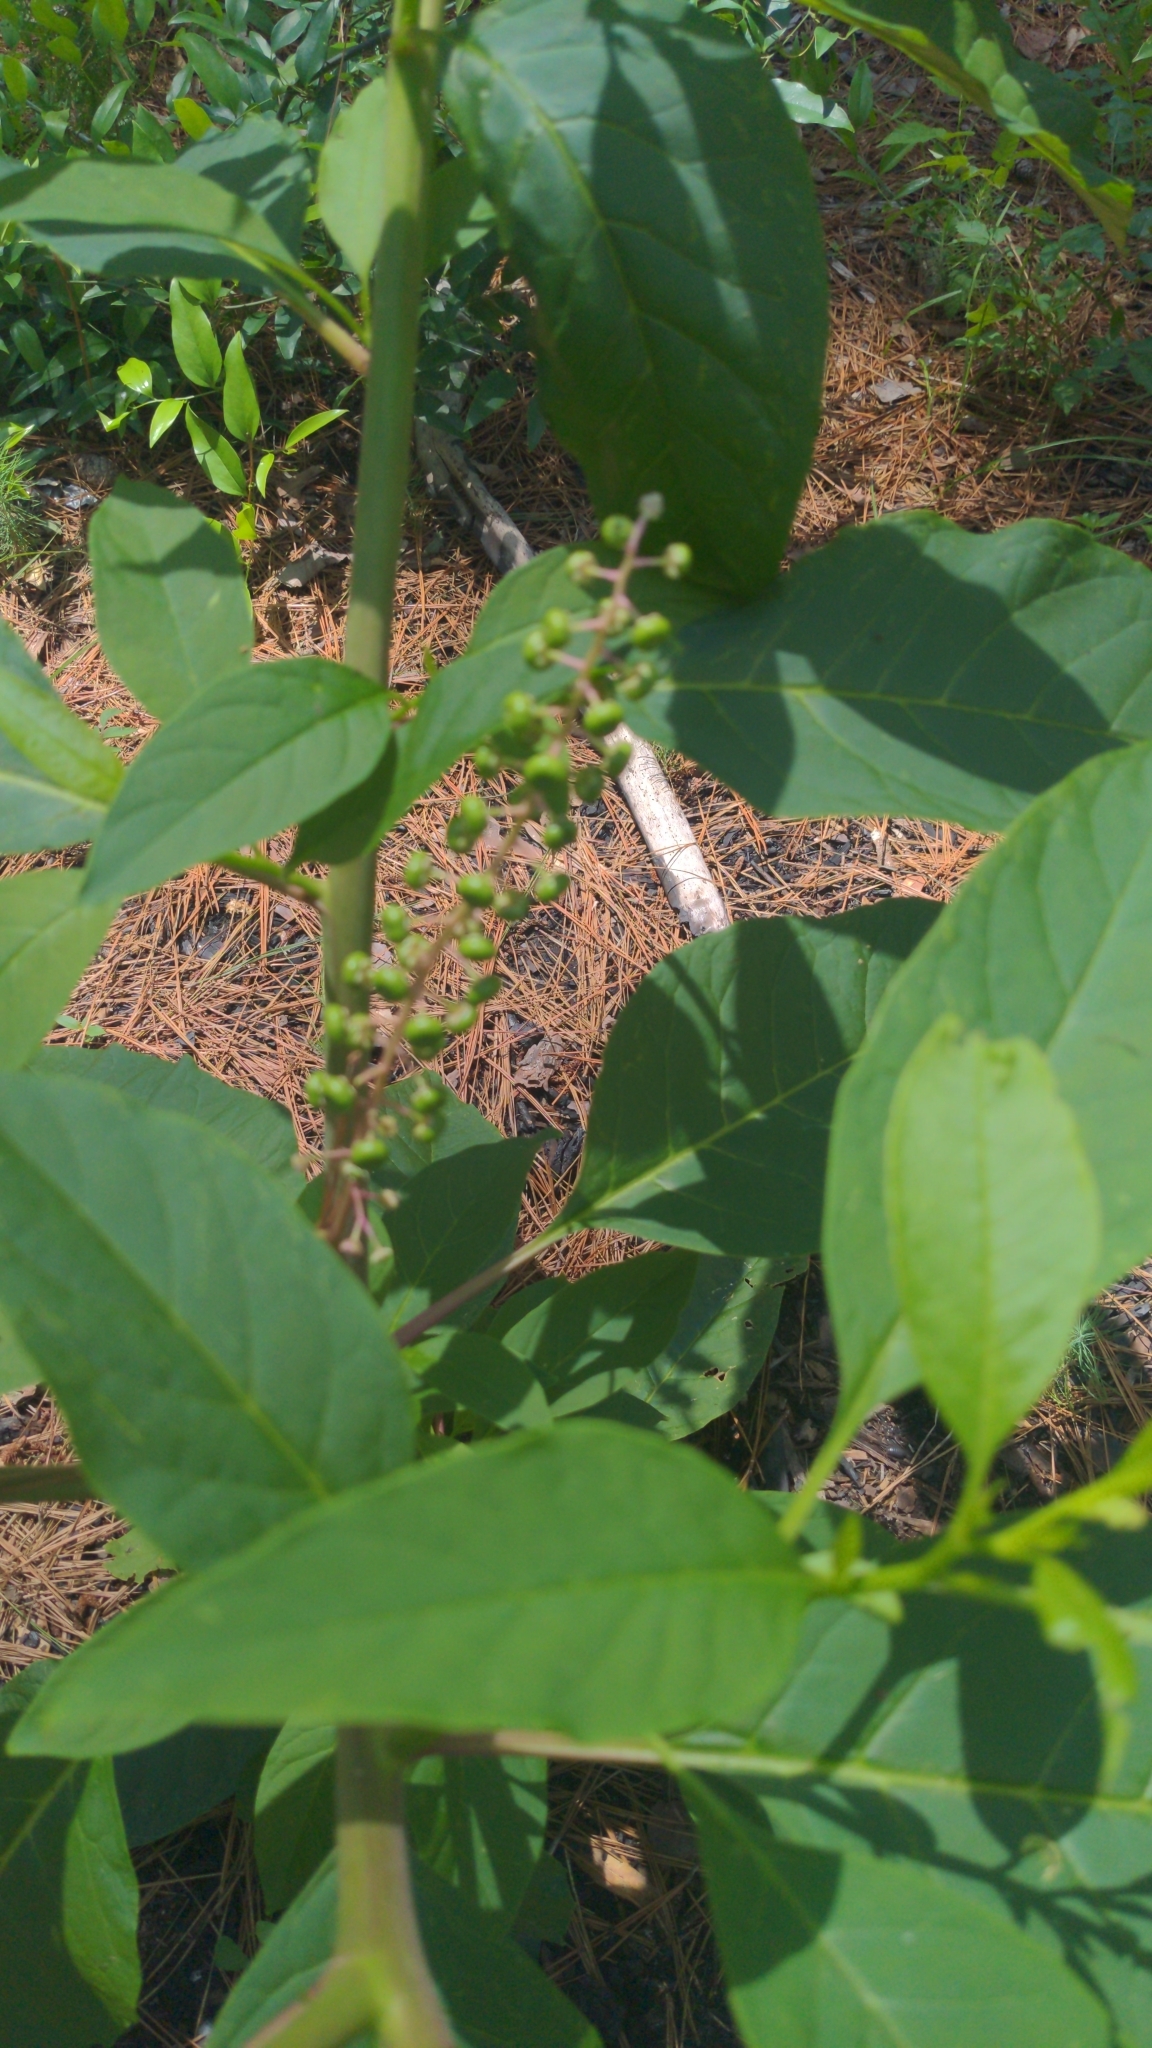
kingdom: Plantae
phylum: Tracheophyta
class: Magnoliopsida
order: Caryophyllales
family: Phytolaccaceae
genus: Phytolacca
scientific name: Phytolacca americana
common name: American pokeweed
